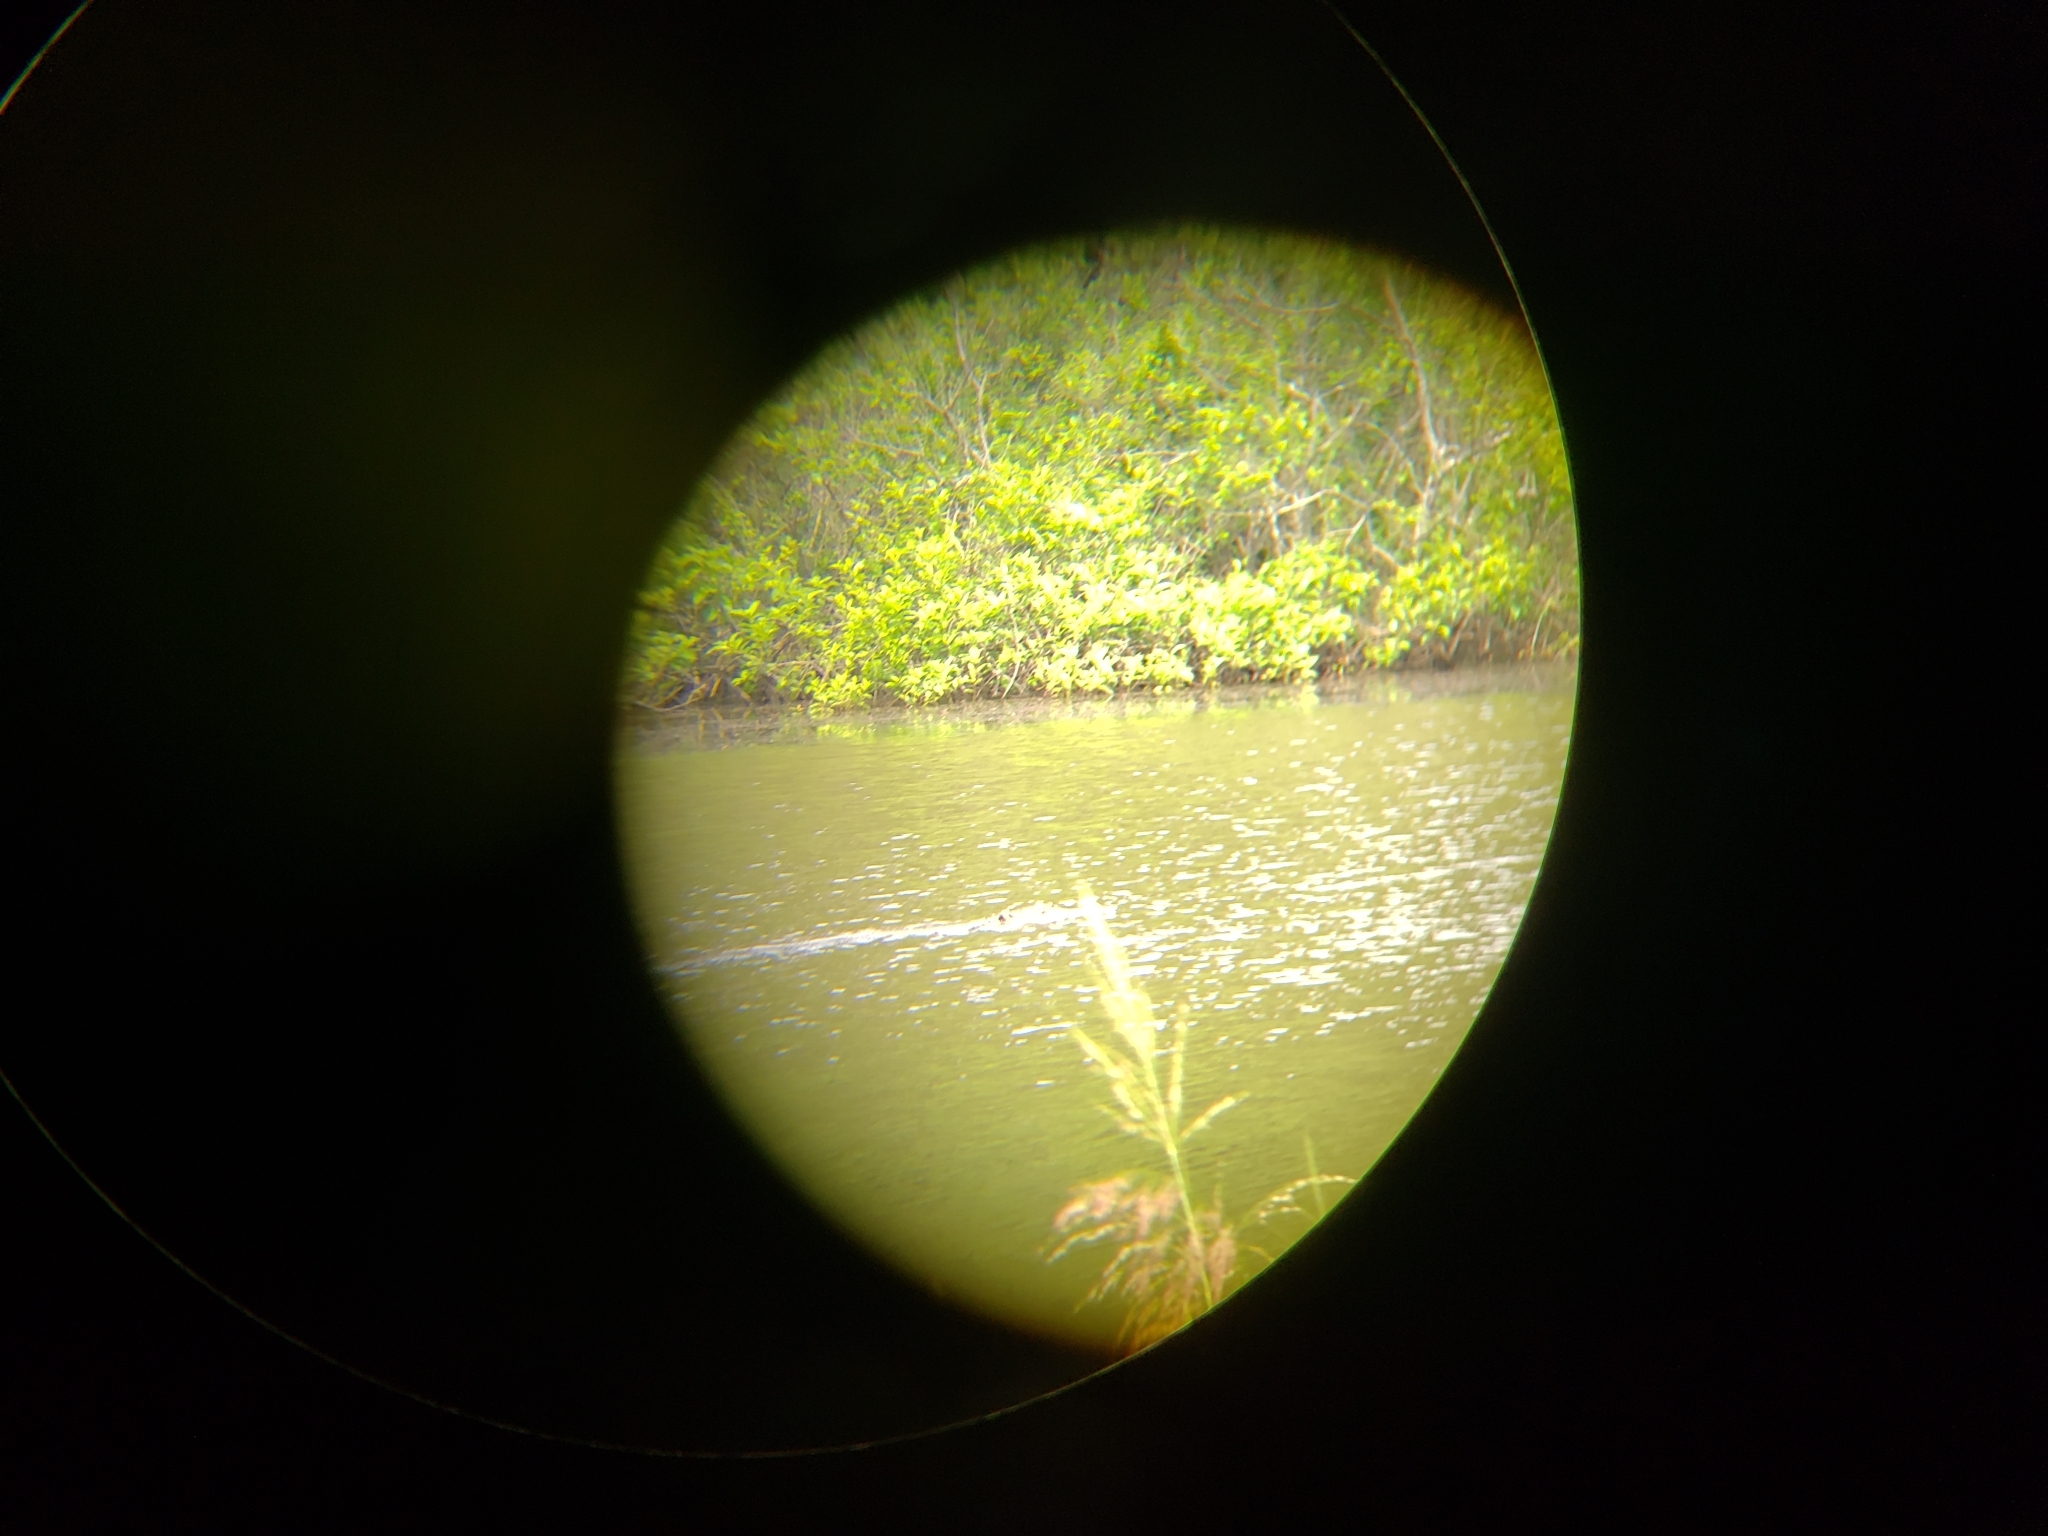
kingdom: Animalia
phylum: Chordata
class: Crocodylia
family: Alligatoridae
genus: Alligator
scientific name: Alligator mississippiensis
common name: American alligator
